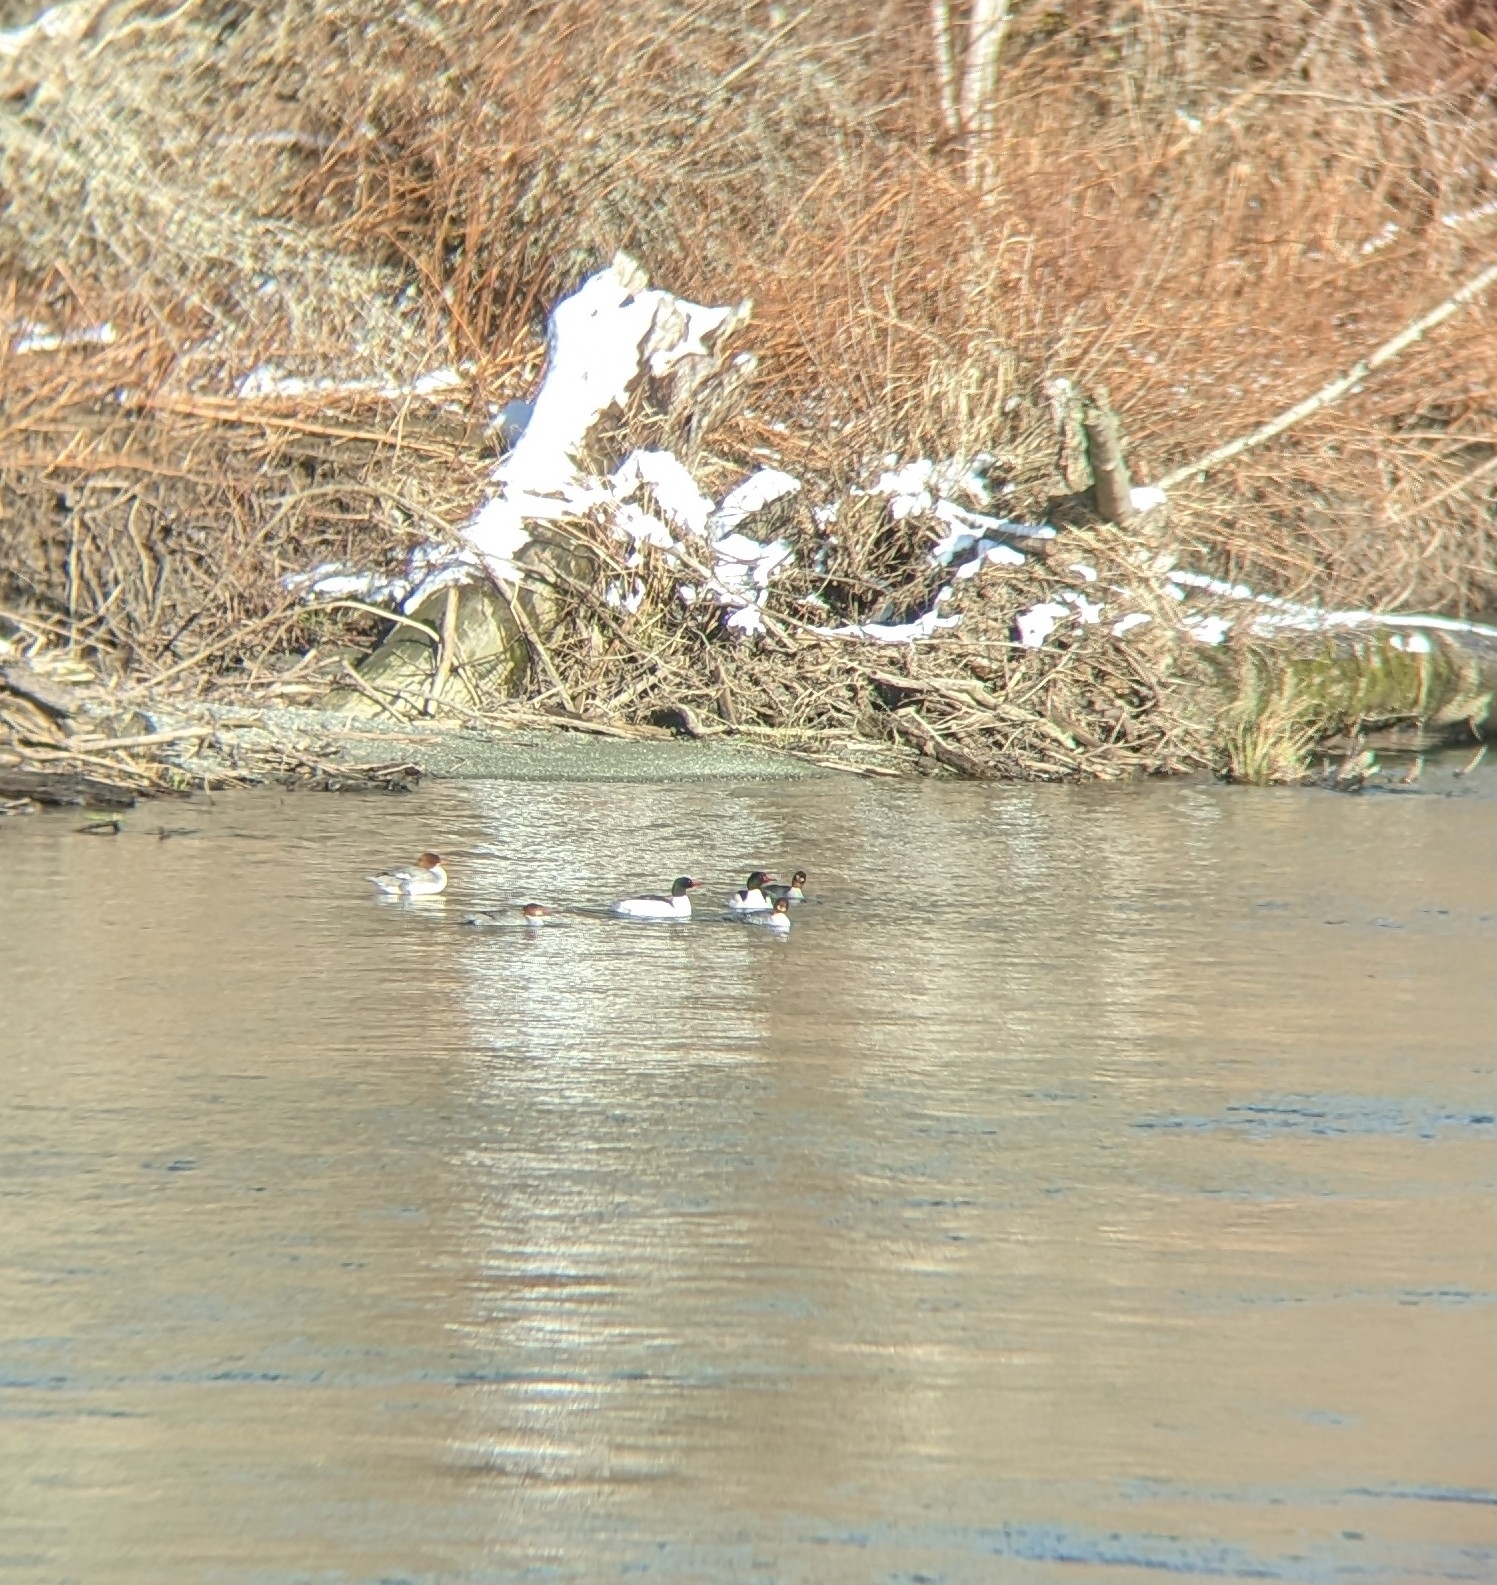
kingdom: Animalia
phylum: Chordata
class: Aves
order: Anseriformes
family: Anatidae
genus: Mergus
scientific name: Mergus merganser
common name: Common merganser
